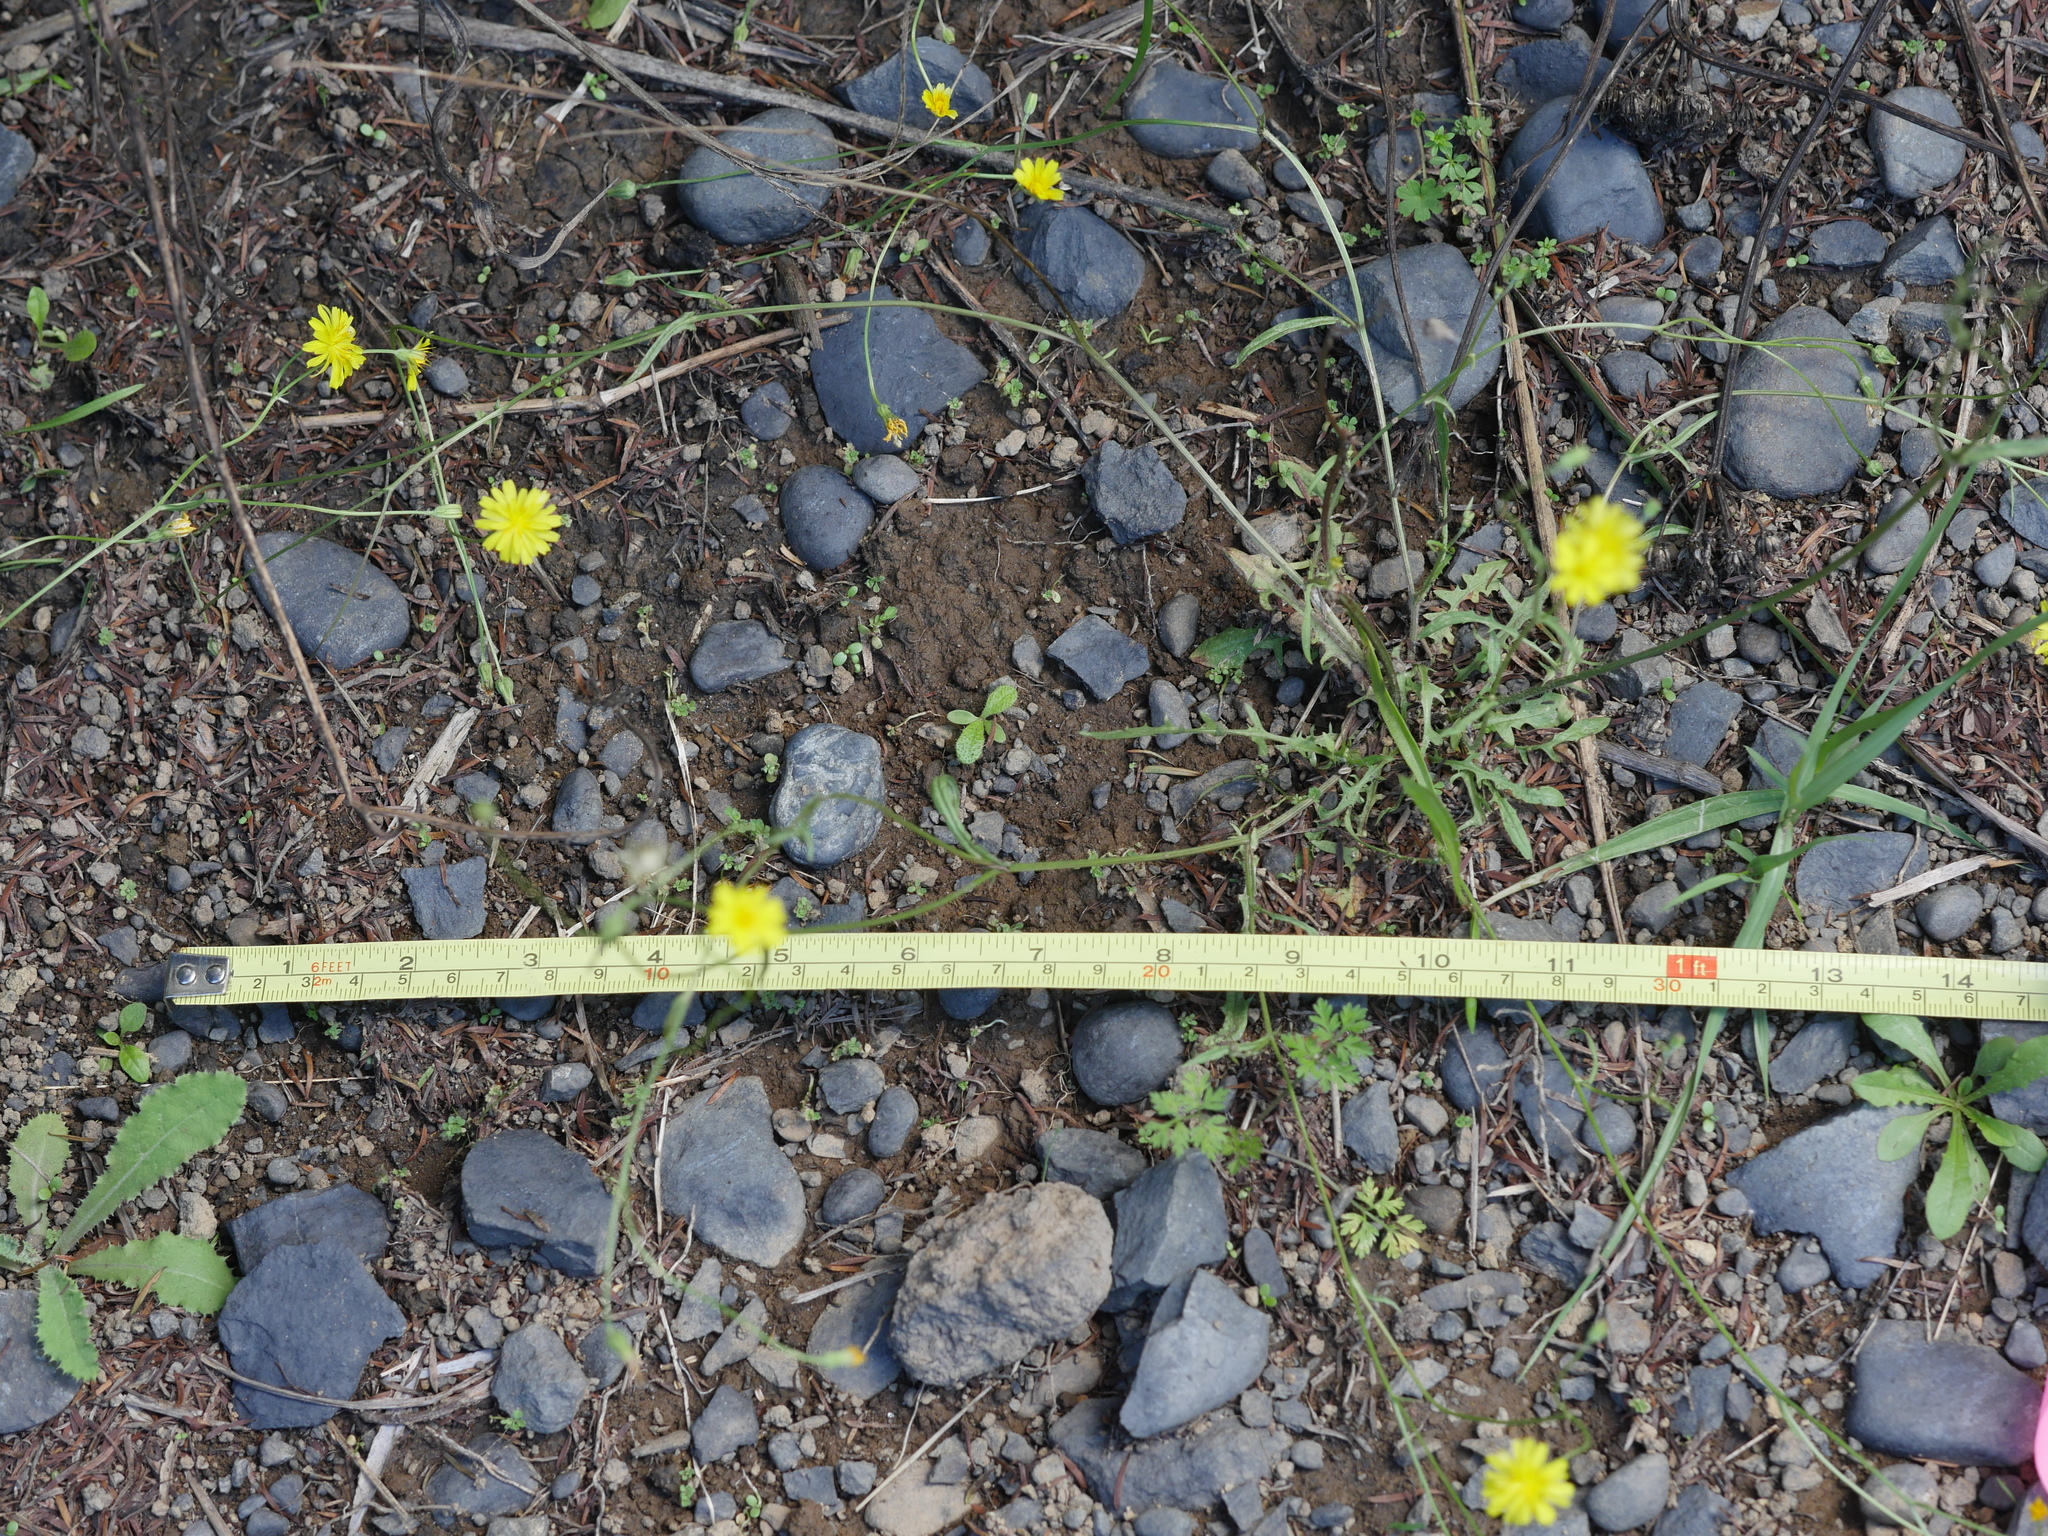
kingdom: Plantae
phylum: Tracheophyta
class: Magnoliopsida
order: Asterales
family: Asteraceae
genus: Crepis
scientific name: Crepis capillaris
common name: Smooth hawksbeard
